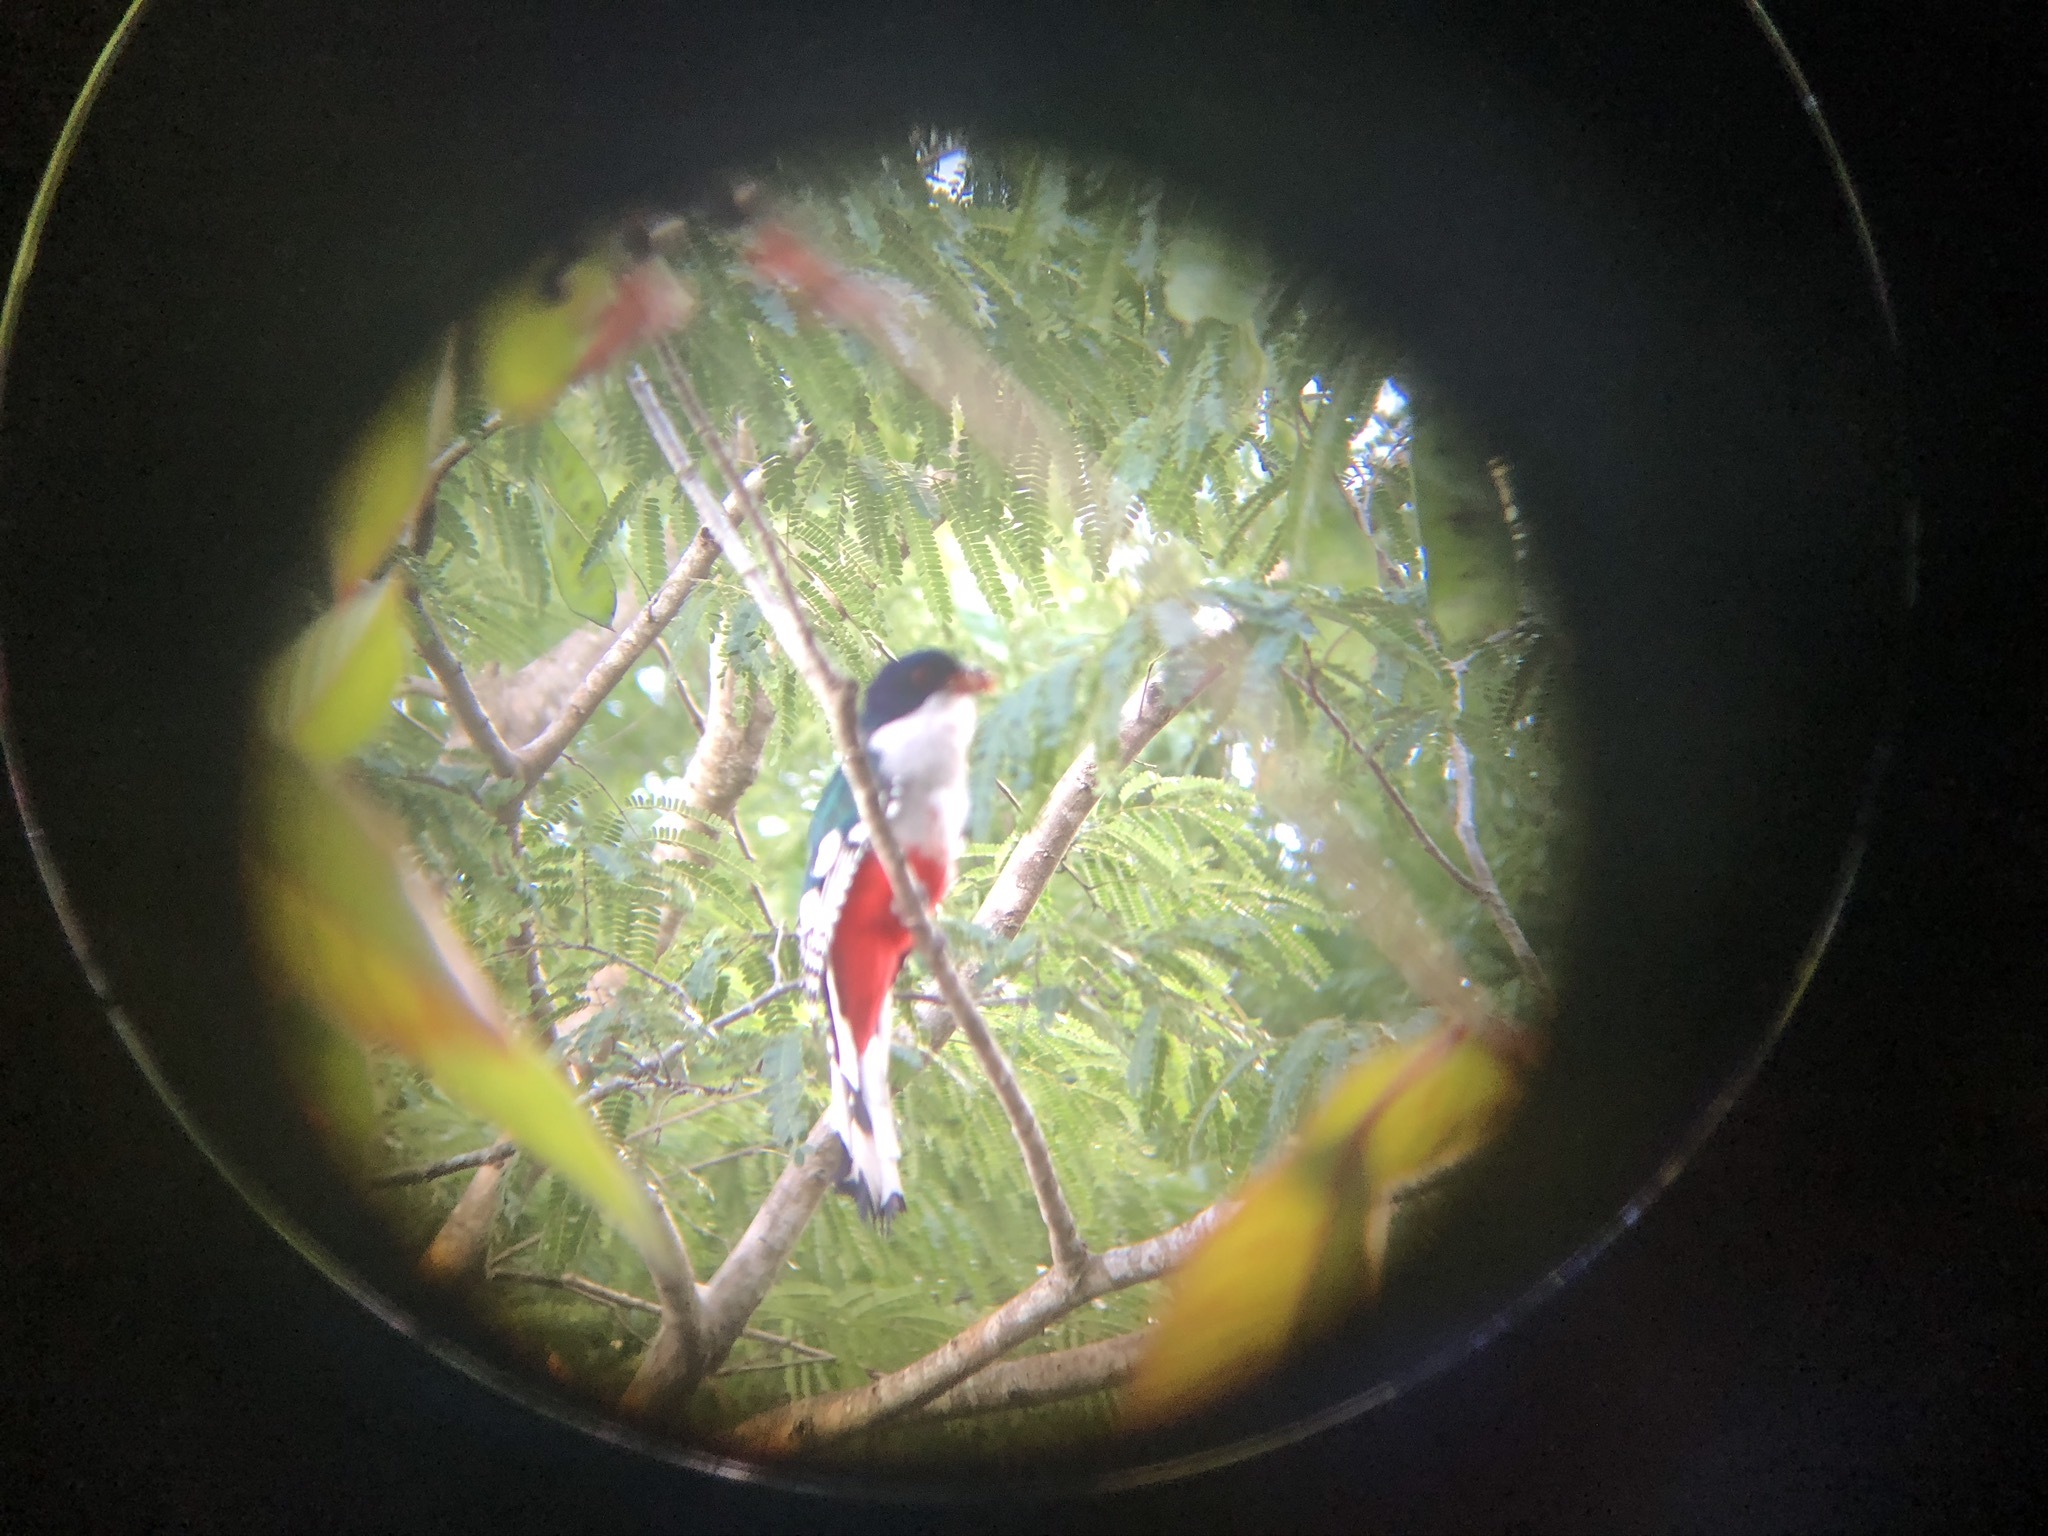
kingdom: Animalia
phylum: Chordata
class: Aves
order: Trogoniformes
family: Trogonidae
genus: Priotelus
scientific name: Priotelus temnurus
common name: Cuban trogon
